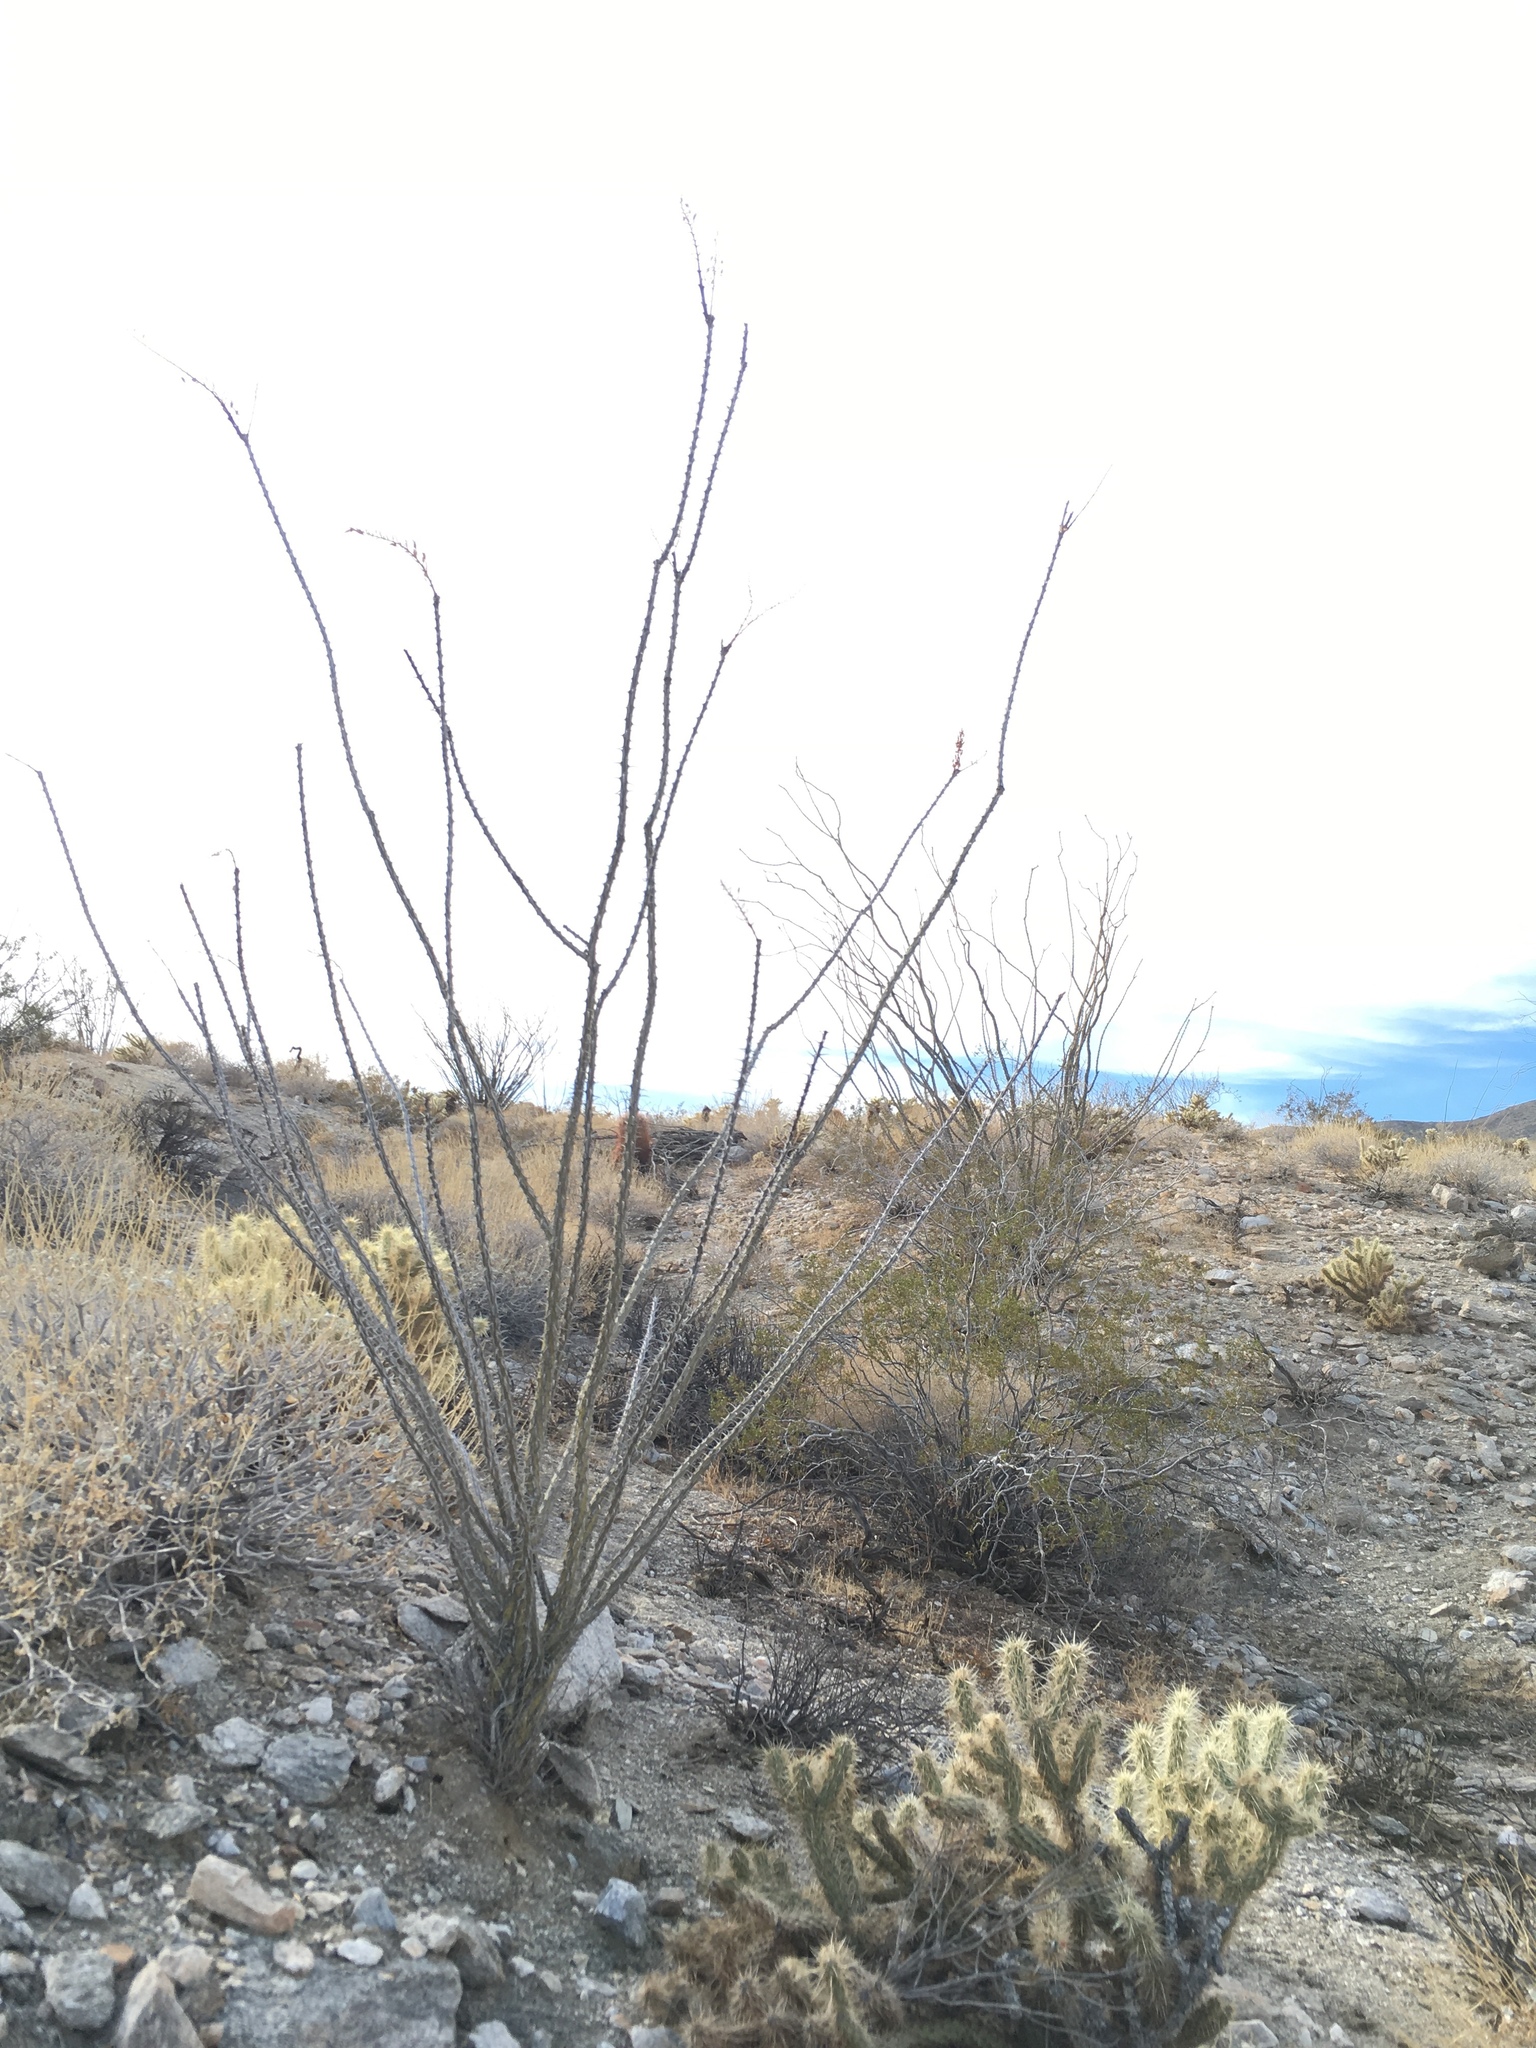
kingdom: Plantae
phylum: Tracheophyta
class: Magnoliopsida
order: Ericales
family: Fouquieriaceae
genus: Fouquieria
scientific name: Fouquieria splendens
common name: Vine-cactus
